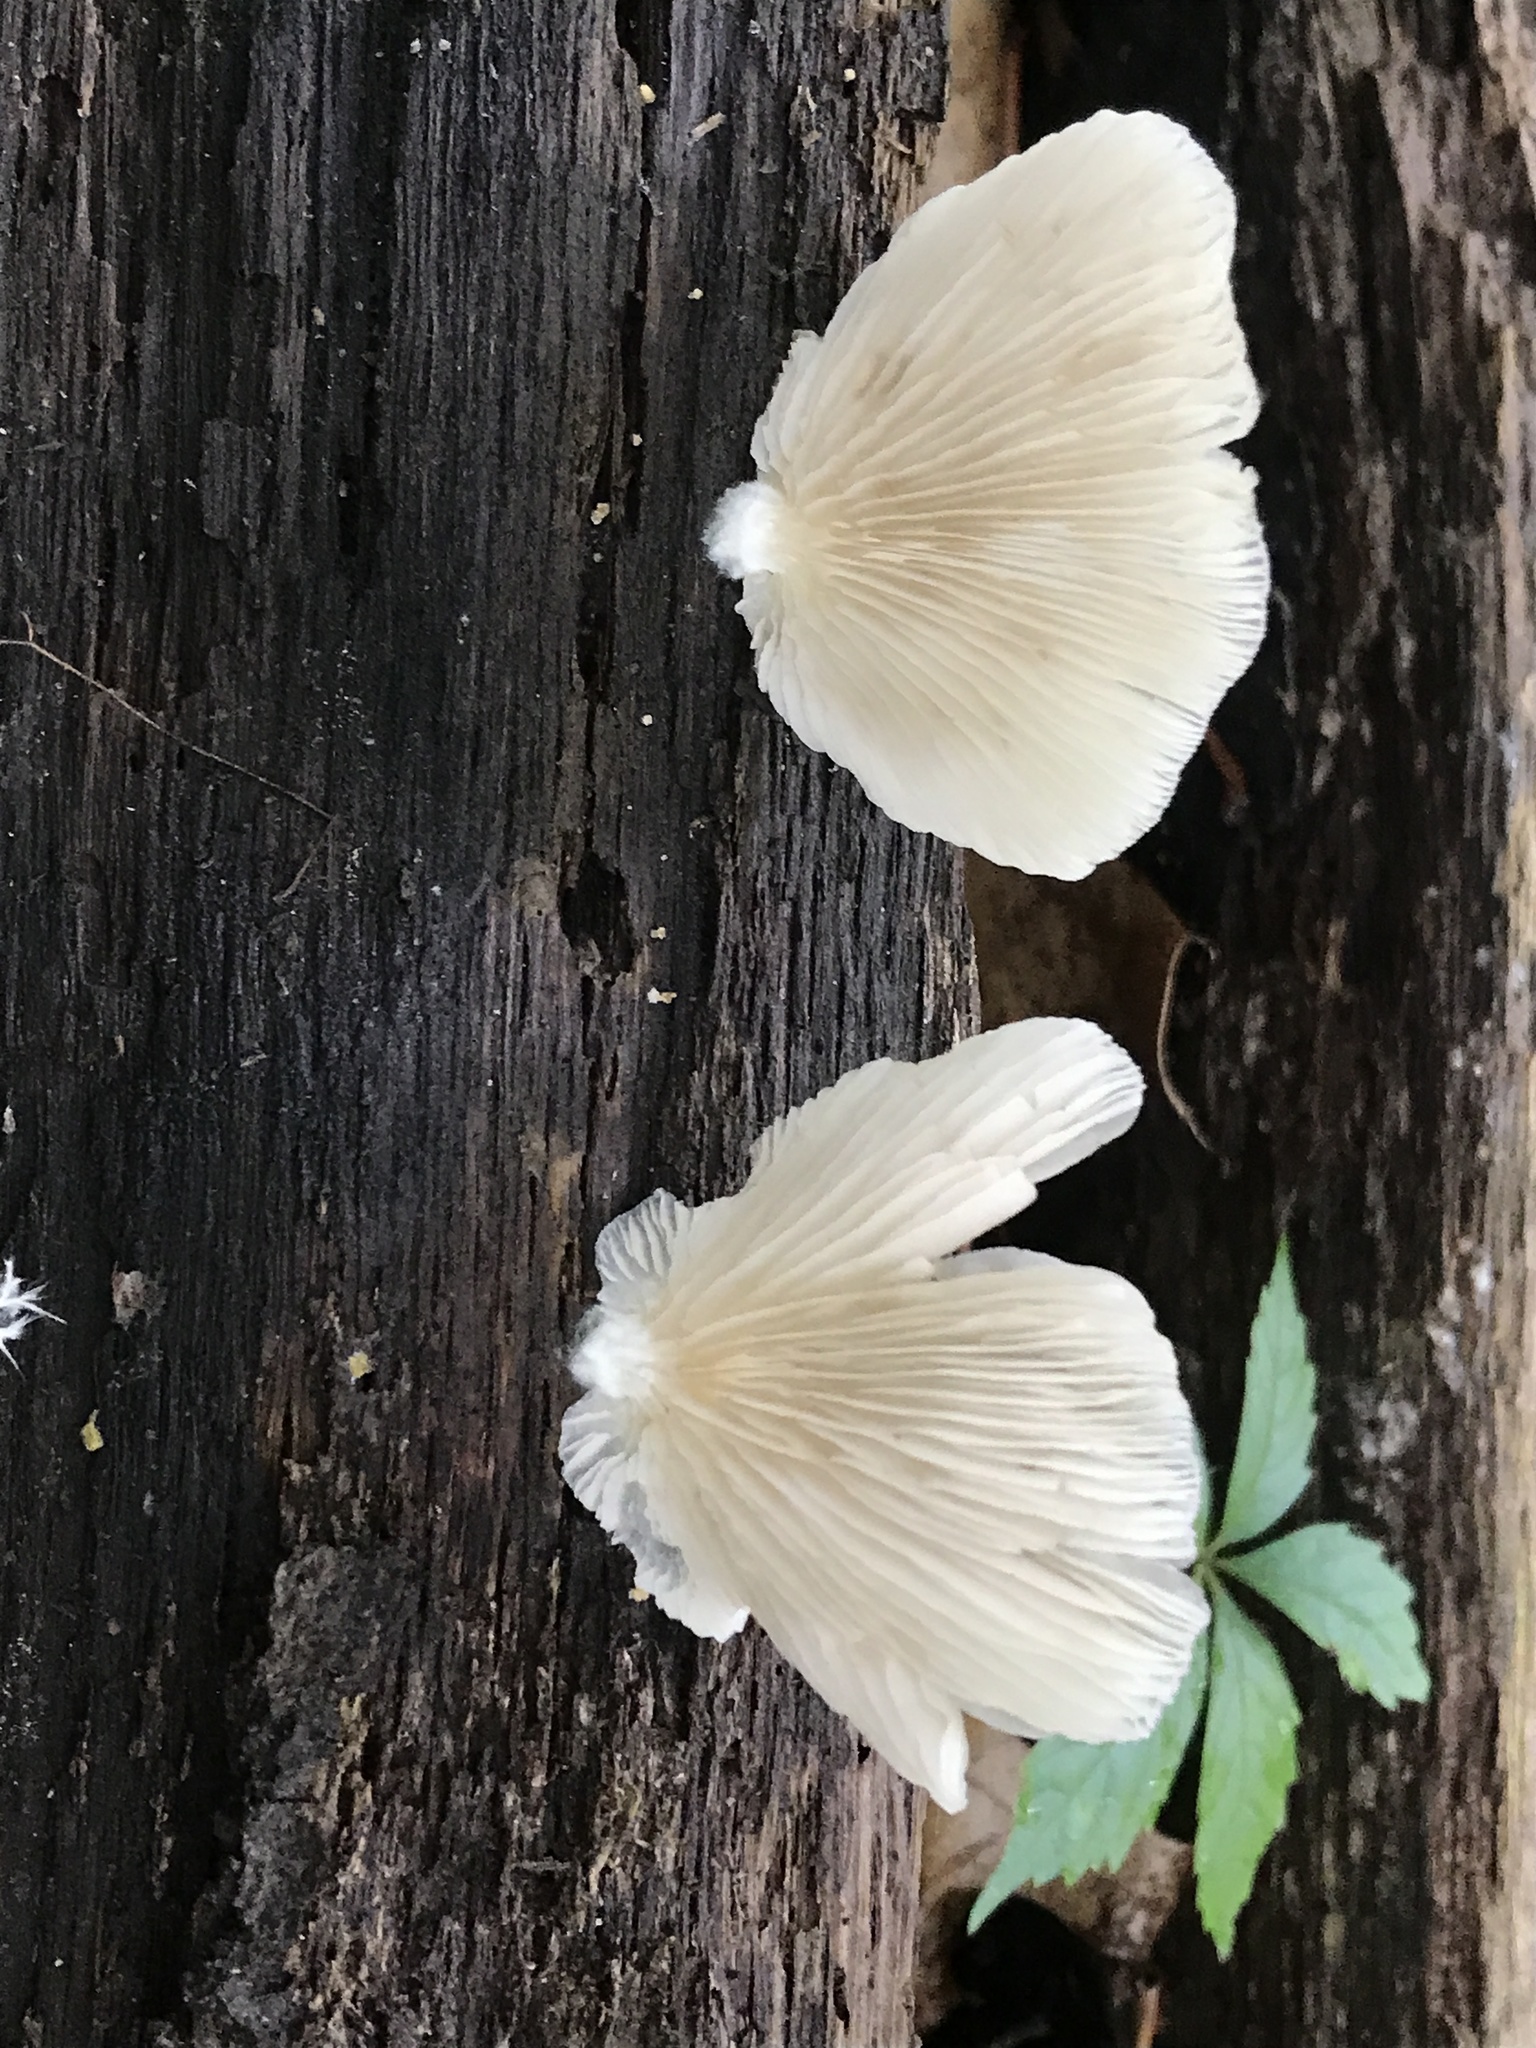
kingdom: Fungi
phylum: Basidiomycota
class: Agaricomycetes
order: Agaricales
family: Crepidotaceae
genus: Crepidotus
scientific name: Crepidotus applanatus
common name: Flat crep
